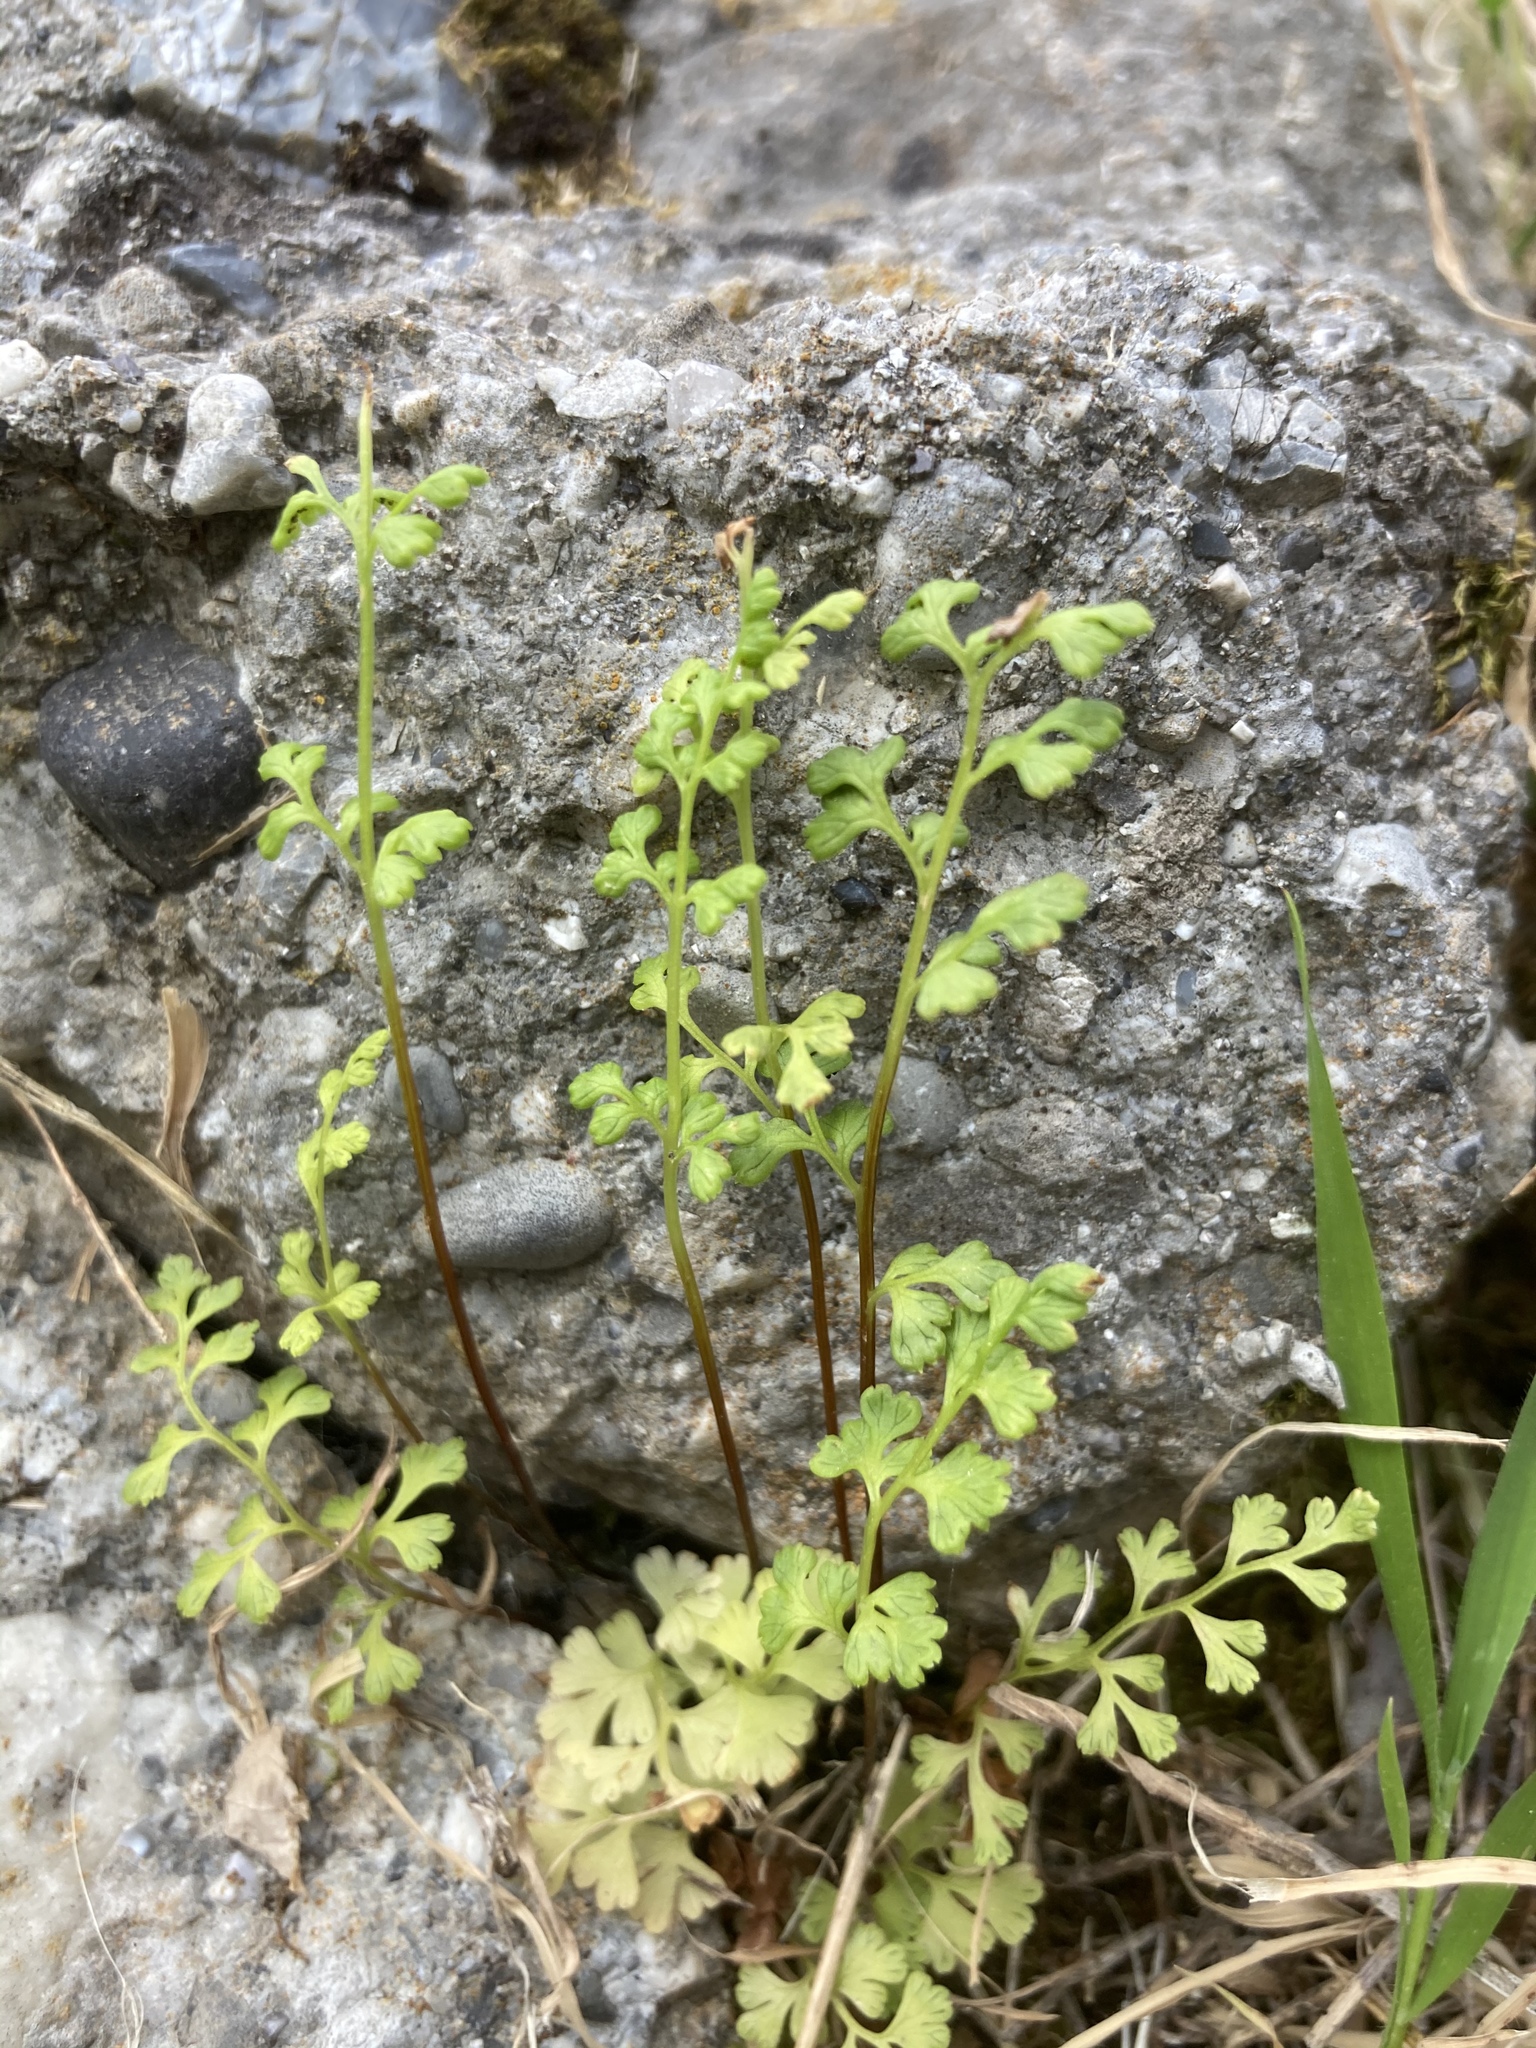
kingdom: Plantae
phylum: Tracheophyta
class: Polypodiopsida
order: Polypodiales
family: Pteridaceae
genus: Anogramma
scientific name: Anogramma leptophylla
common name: Jersey fern
